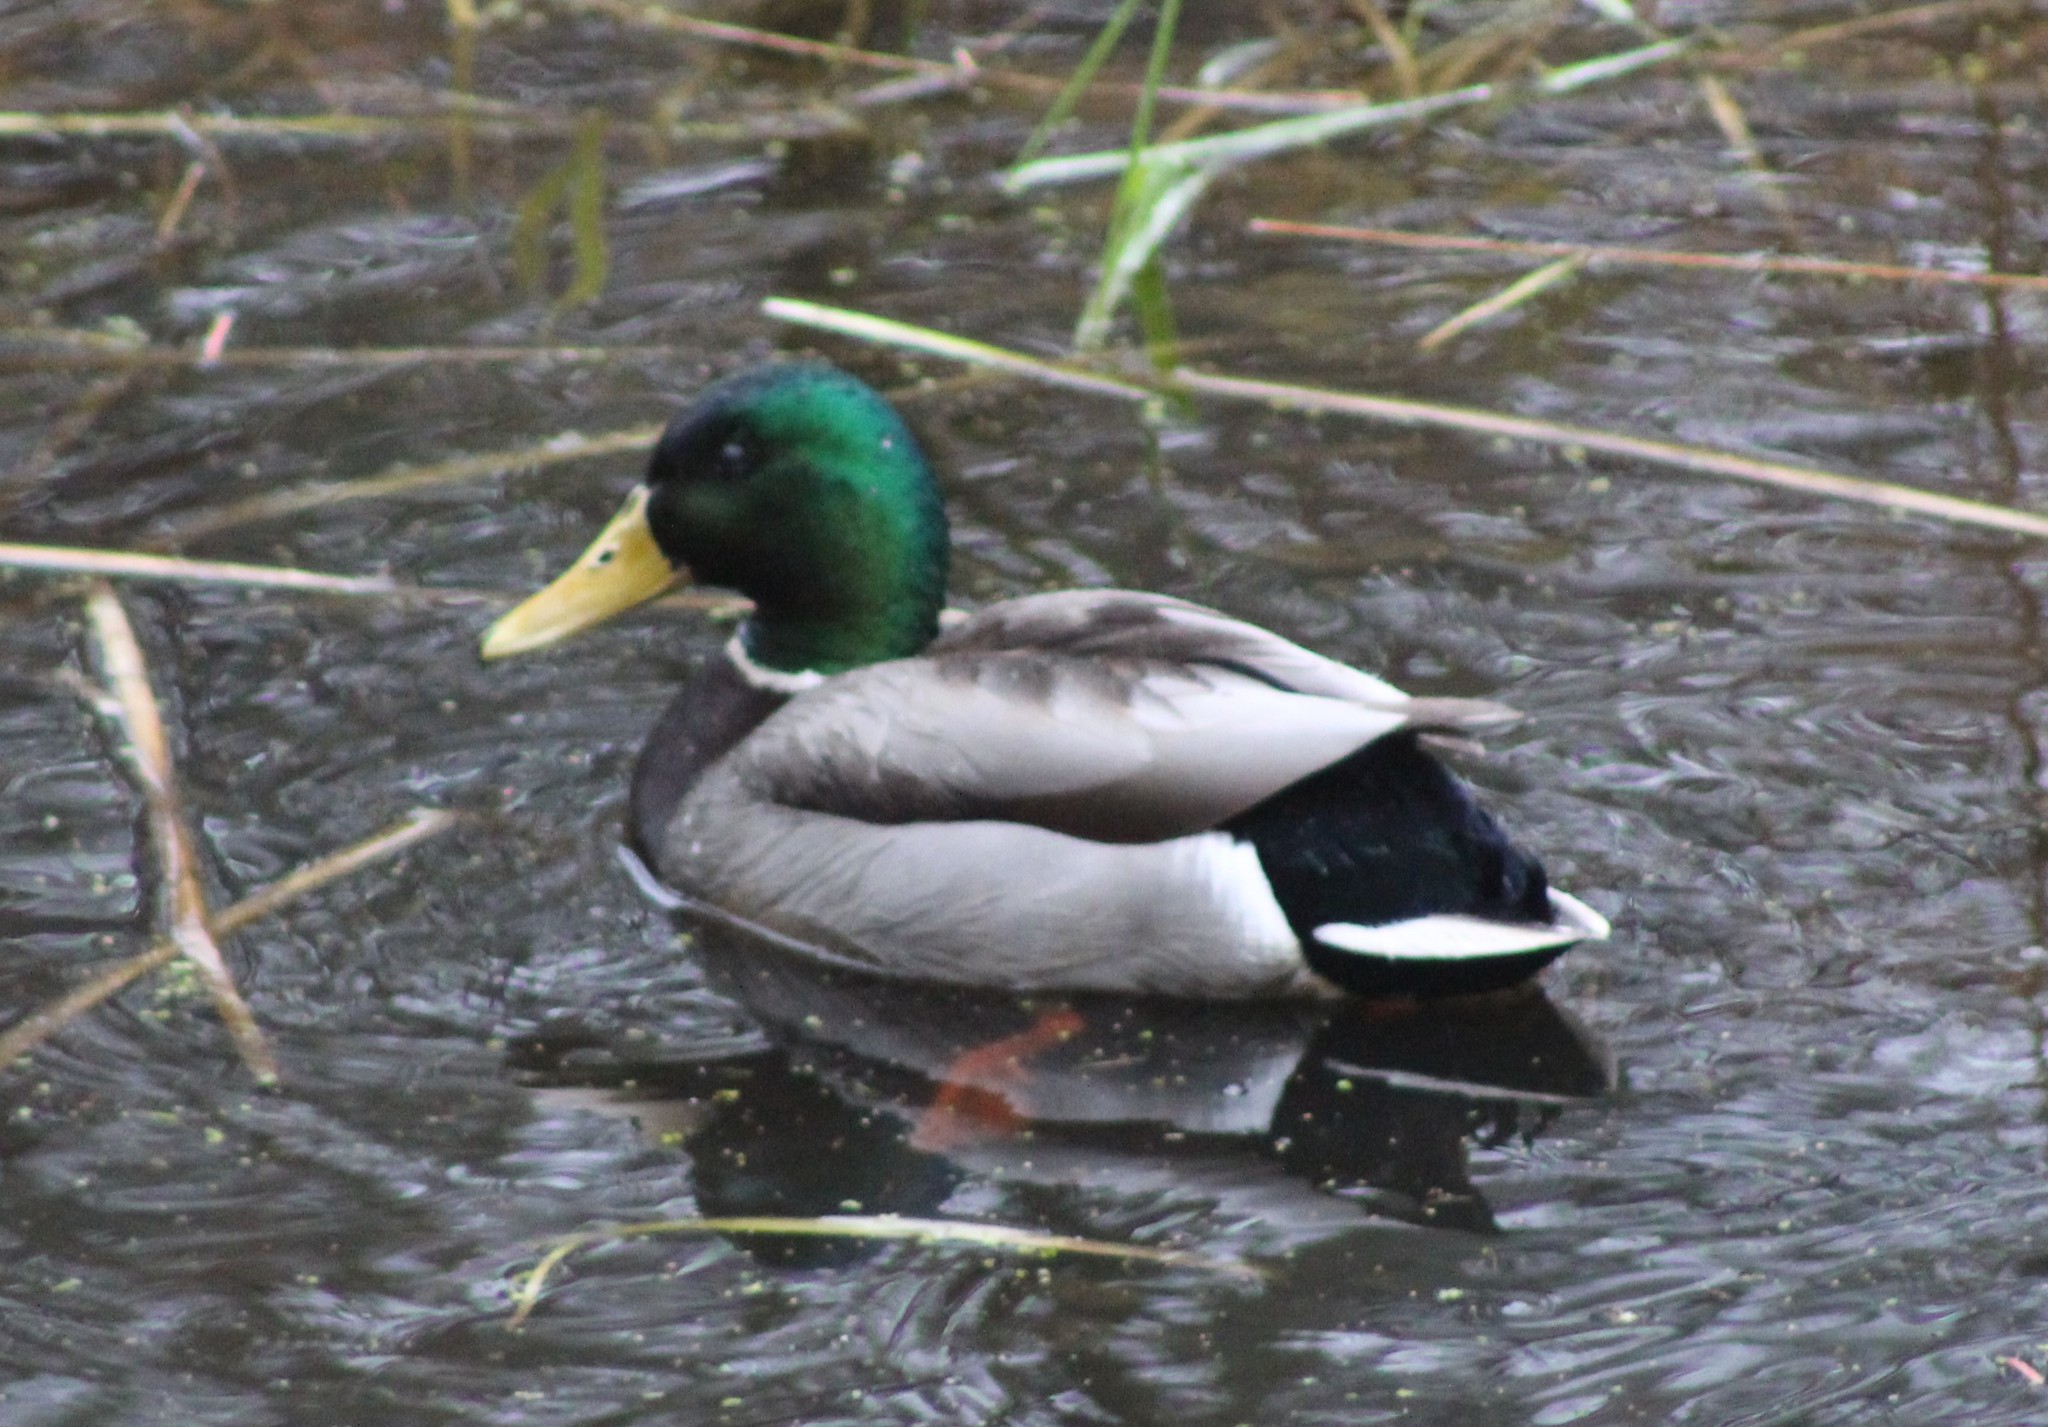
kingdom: Animalia
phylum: Chordata
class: Aves
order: Anseriformes
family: Anatidae
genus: Anas
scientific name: Anas platyrhynchos
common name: Mallard
